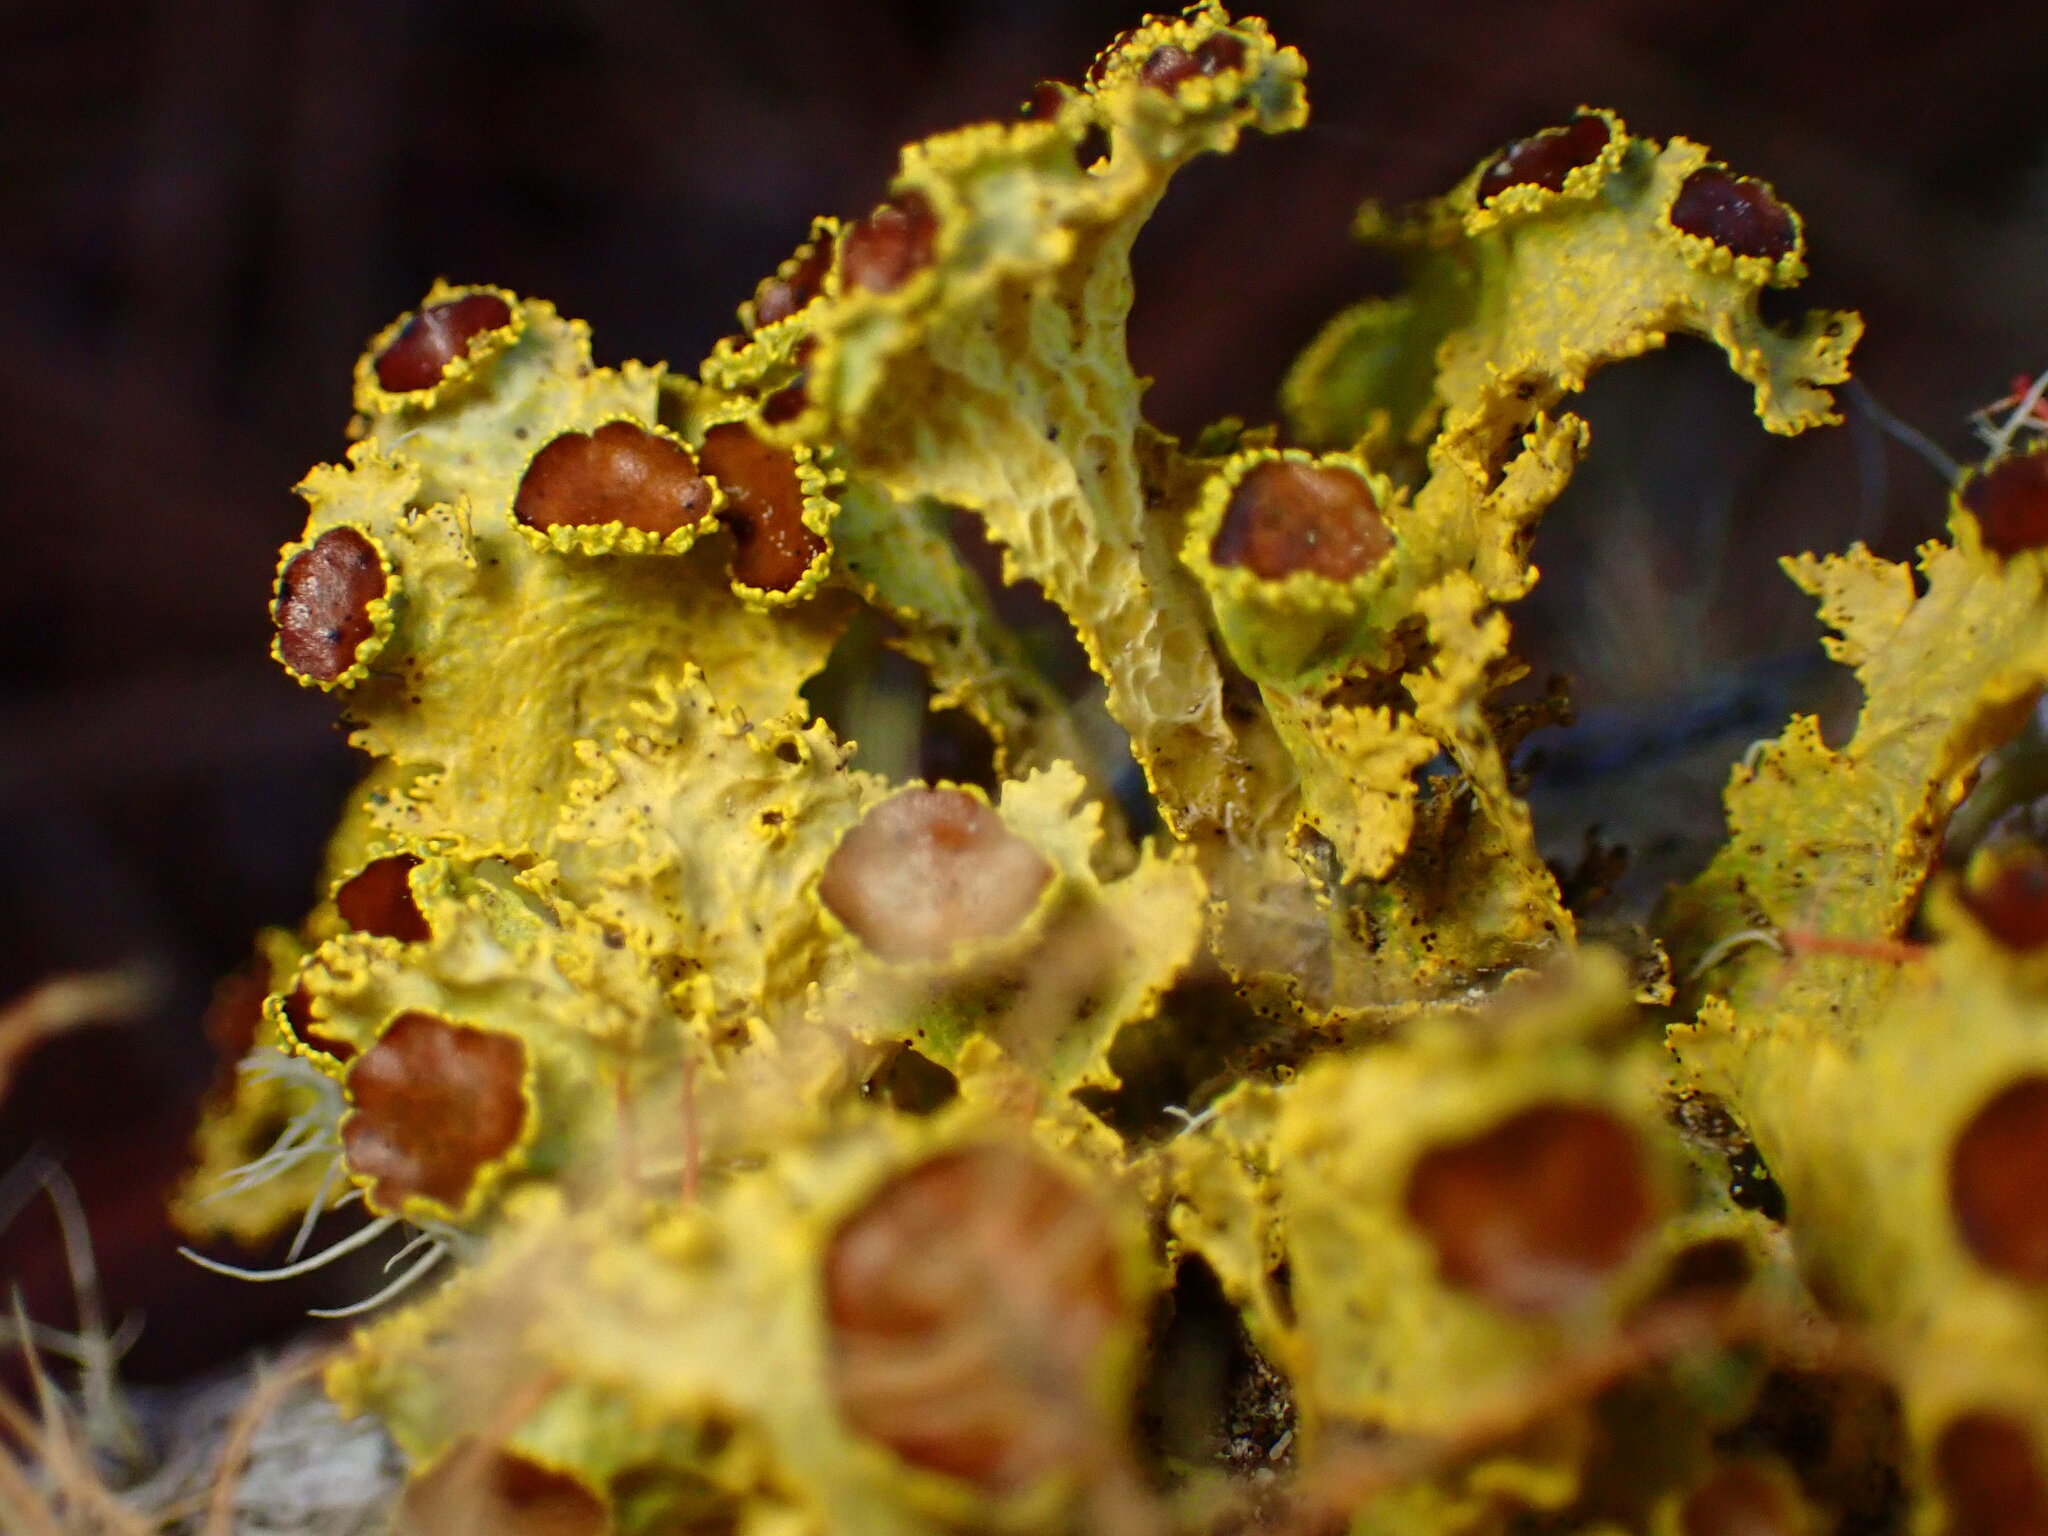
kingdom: Fungi
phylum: Ascomycota
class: Lecanoromycetes
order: Lecanorales
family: Parmeliaceae
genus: Vulpicida
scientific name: Vulpicida canadensis
